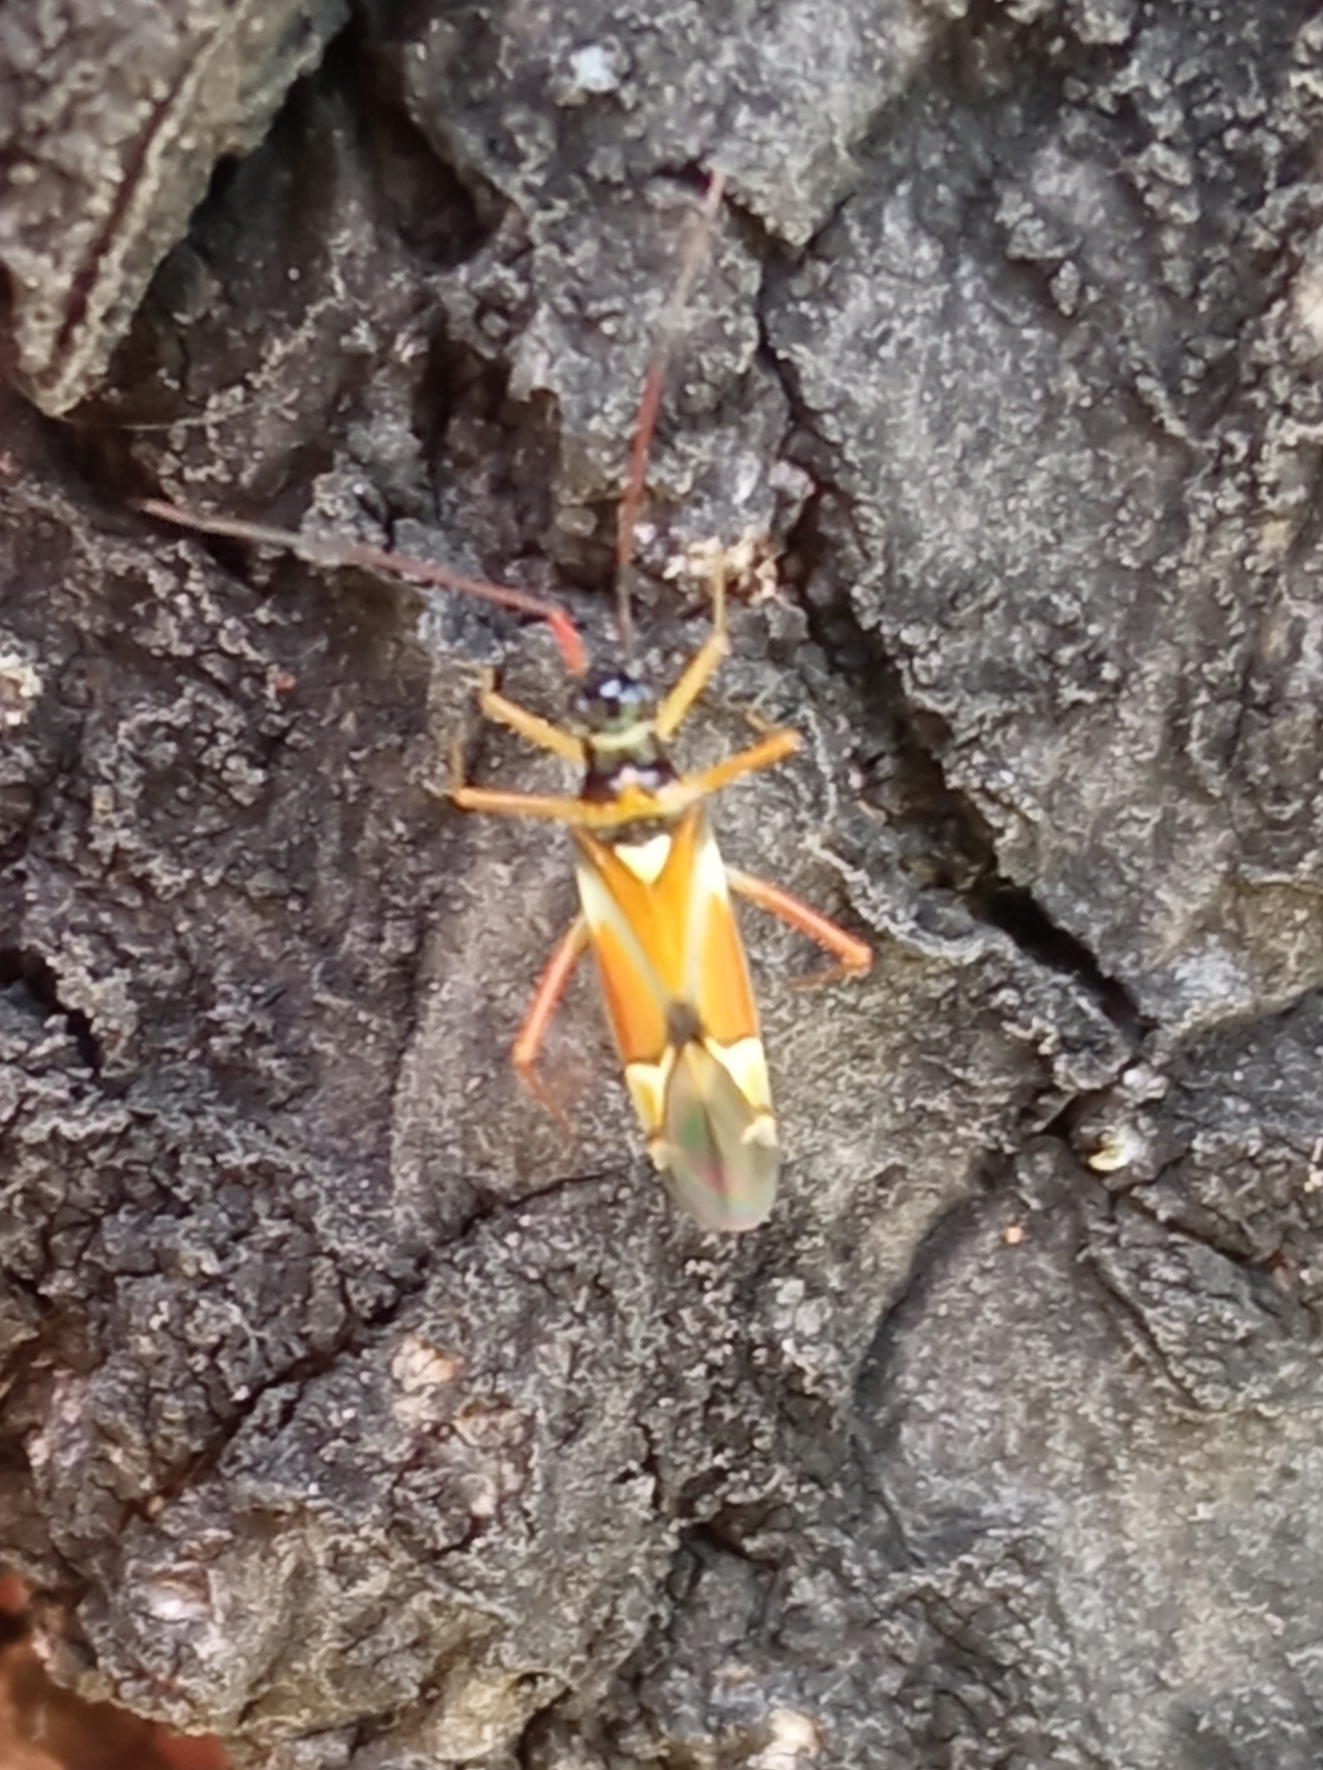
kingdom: Animalia
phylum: Arthropoda
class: Insecta
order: Hemiptera
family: Miridae
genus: Cyllecoris
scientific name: Cyllecoris histrionius
